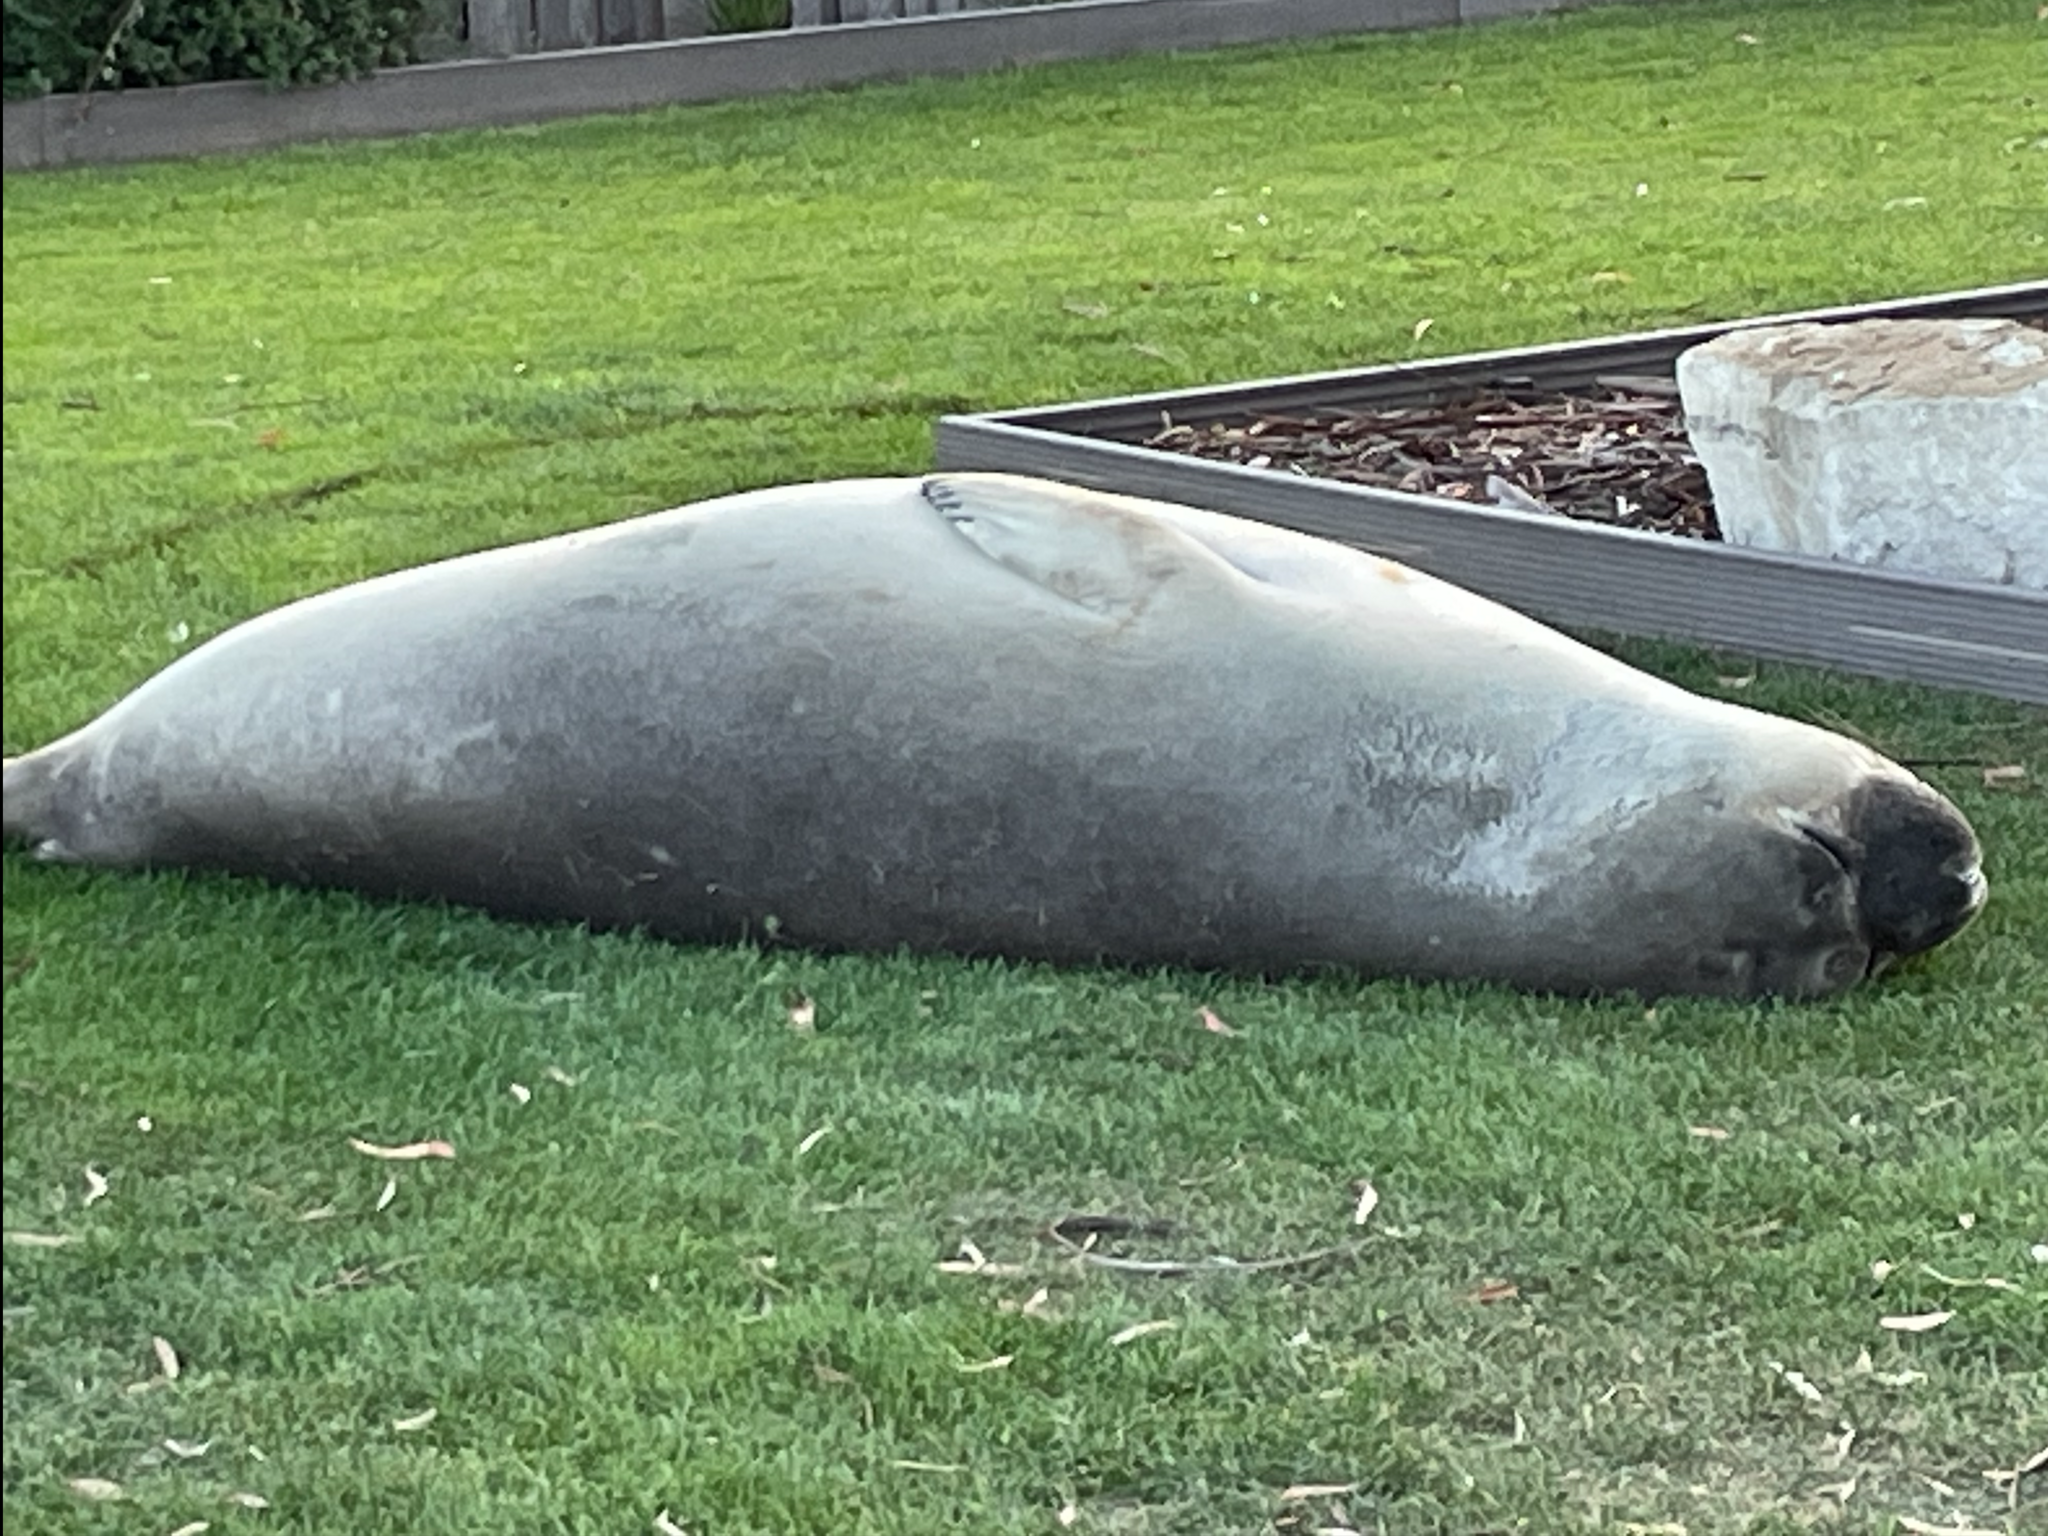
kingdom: Animalia
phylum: Chordata
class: Mammalia
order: Carnivora
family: Phocidae
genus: Mirounga
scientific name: Mirounga leonina
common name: Southern elephant seal
